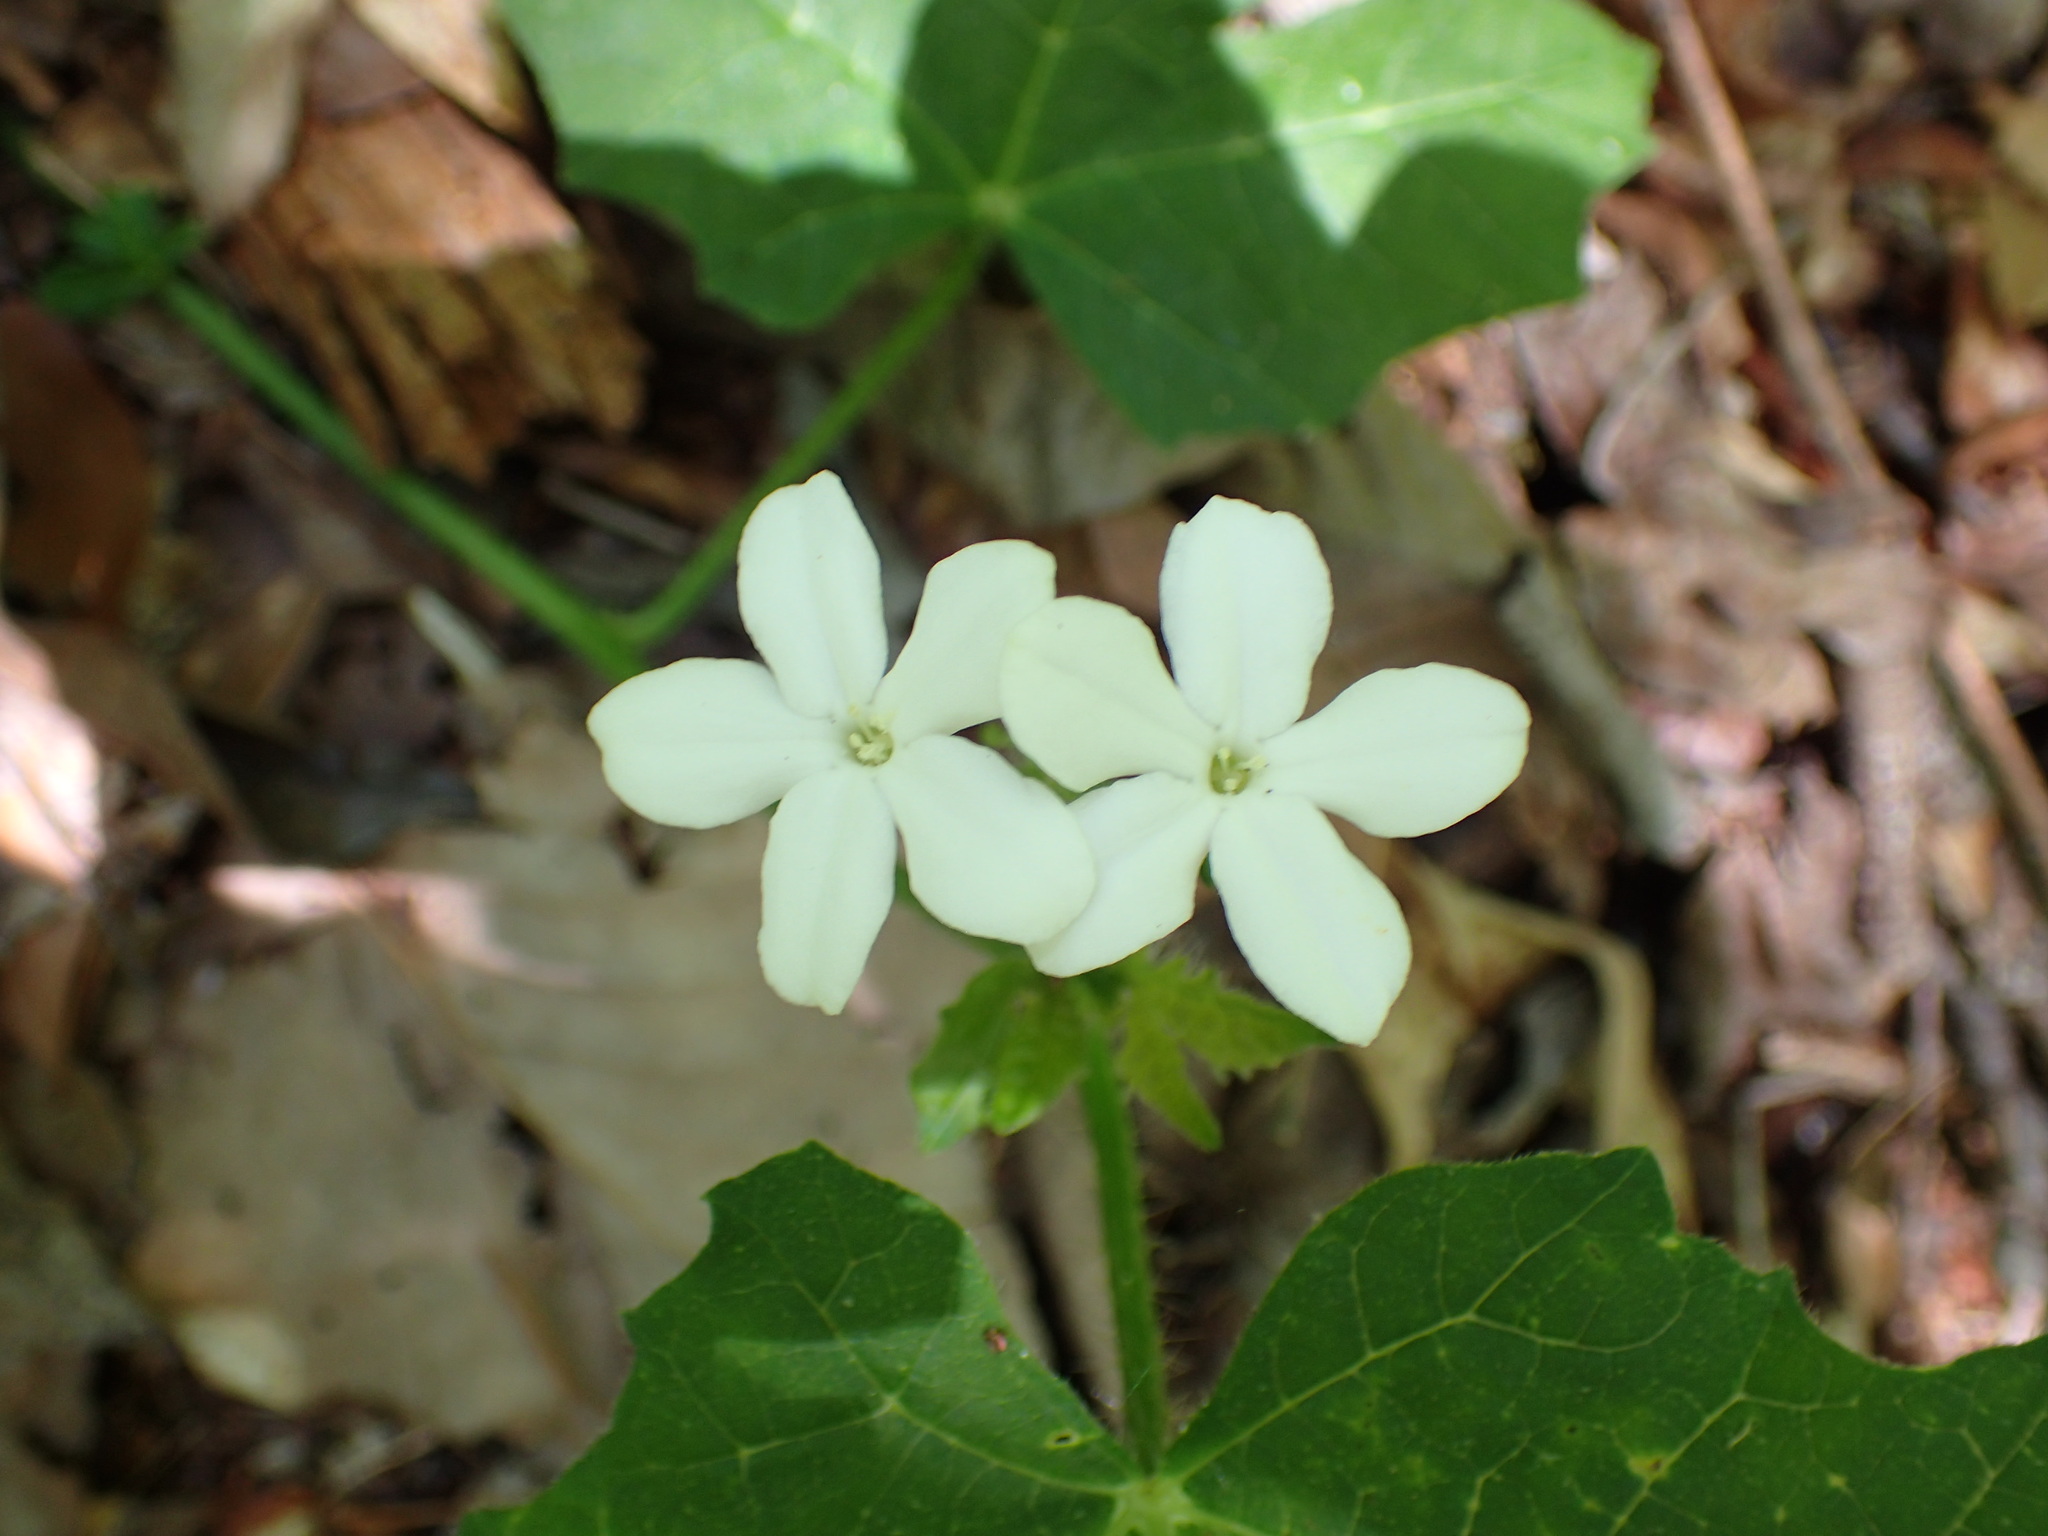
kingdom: Plantae
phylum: Tracheophyta
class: Magnoliopsida
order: Malpighiales
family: Euphorbiaceae
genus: Cnidoscolus
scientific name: Cnidoscolus stimulosus
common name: Bull-nettle
